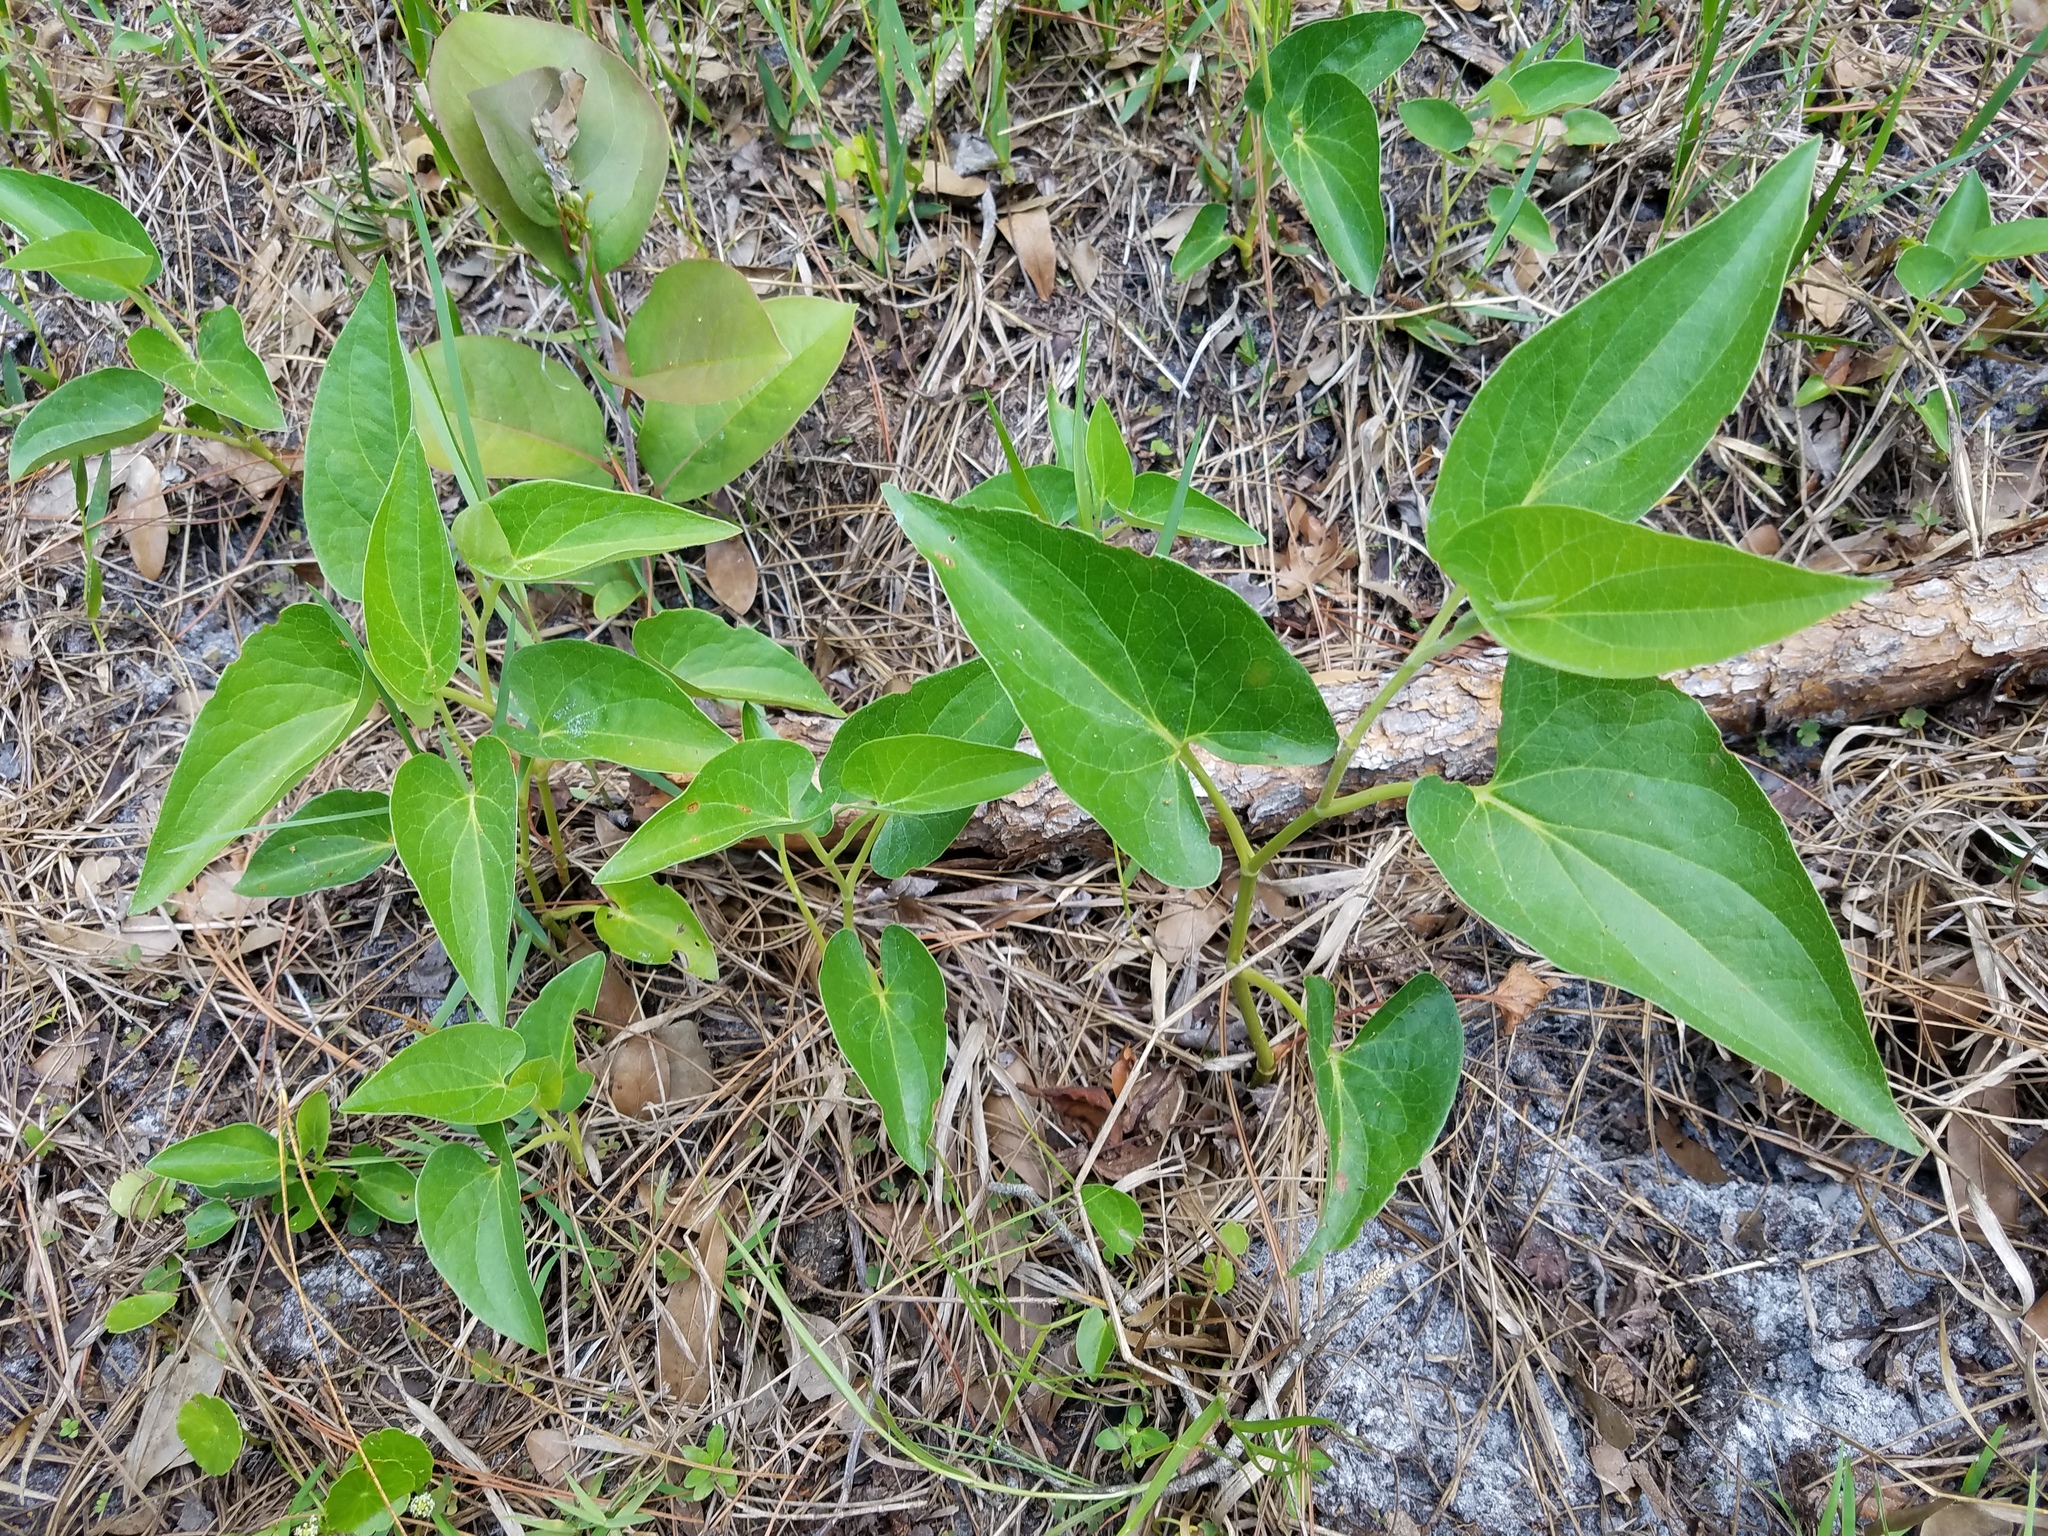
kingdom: Plantae
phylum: Tracheophyta
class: Magnoliopsida
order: Piperales
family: Saururaceae
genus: Saururus
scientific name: Saururus cernuus
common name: Lizard's-tail
